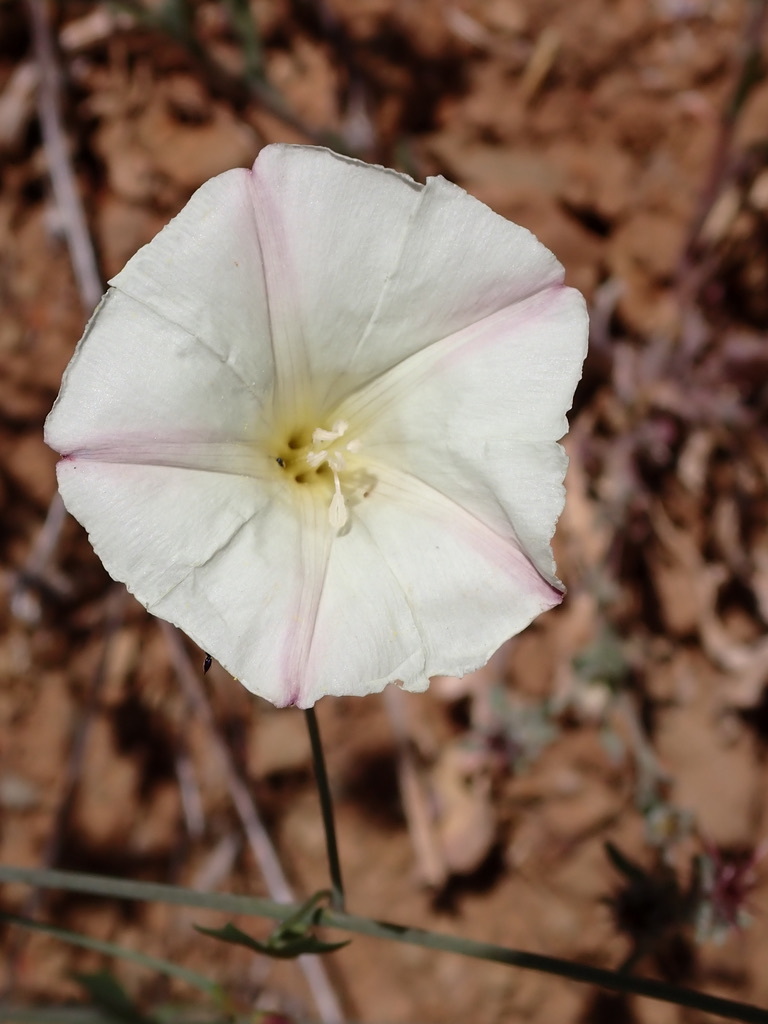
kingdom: Plantae
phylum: Tracheophyta
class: Magnoliopsida
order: Solanales
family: Convolvulaceae
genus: Calystegia
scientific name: Calystegia purpurata
